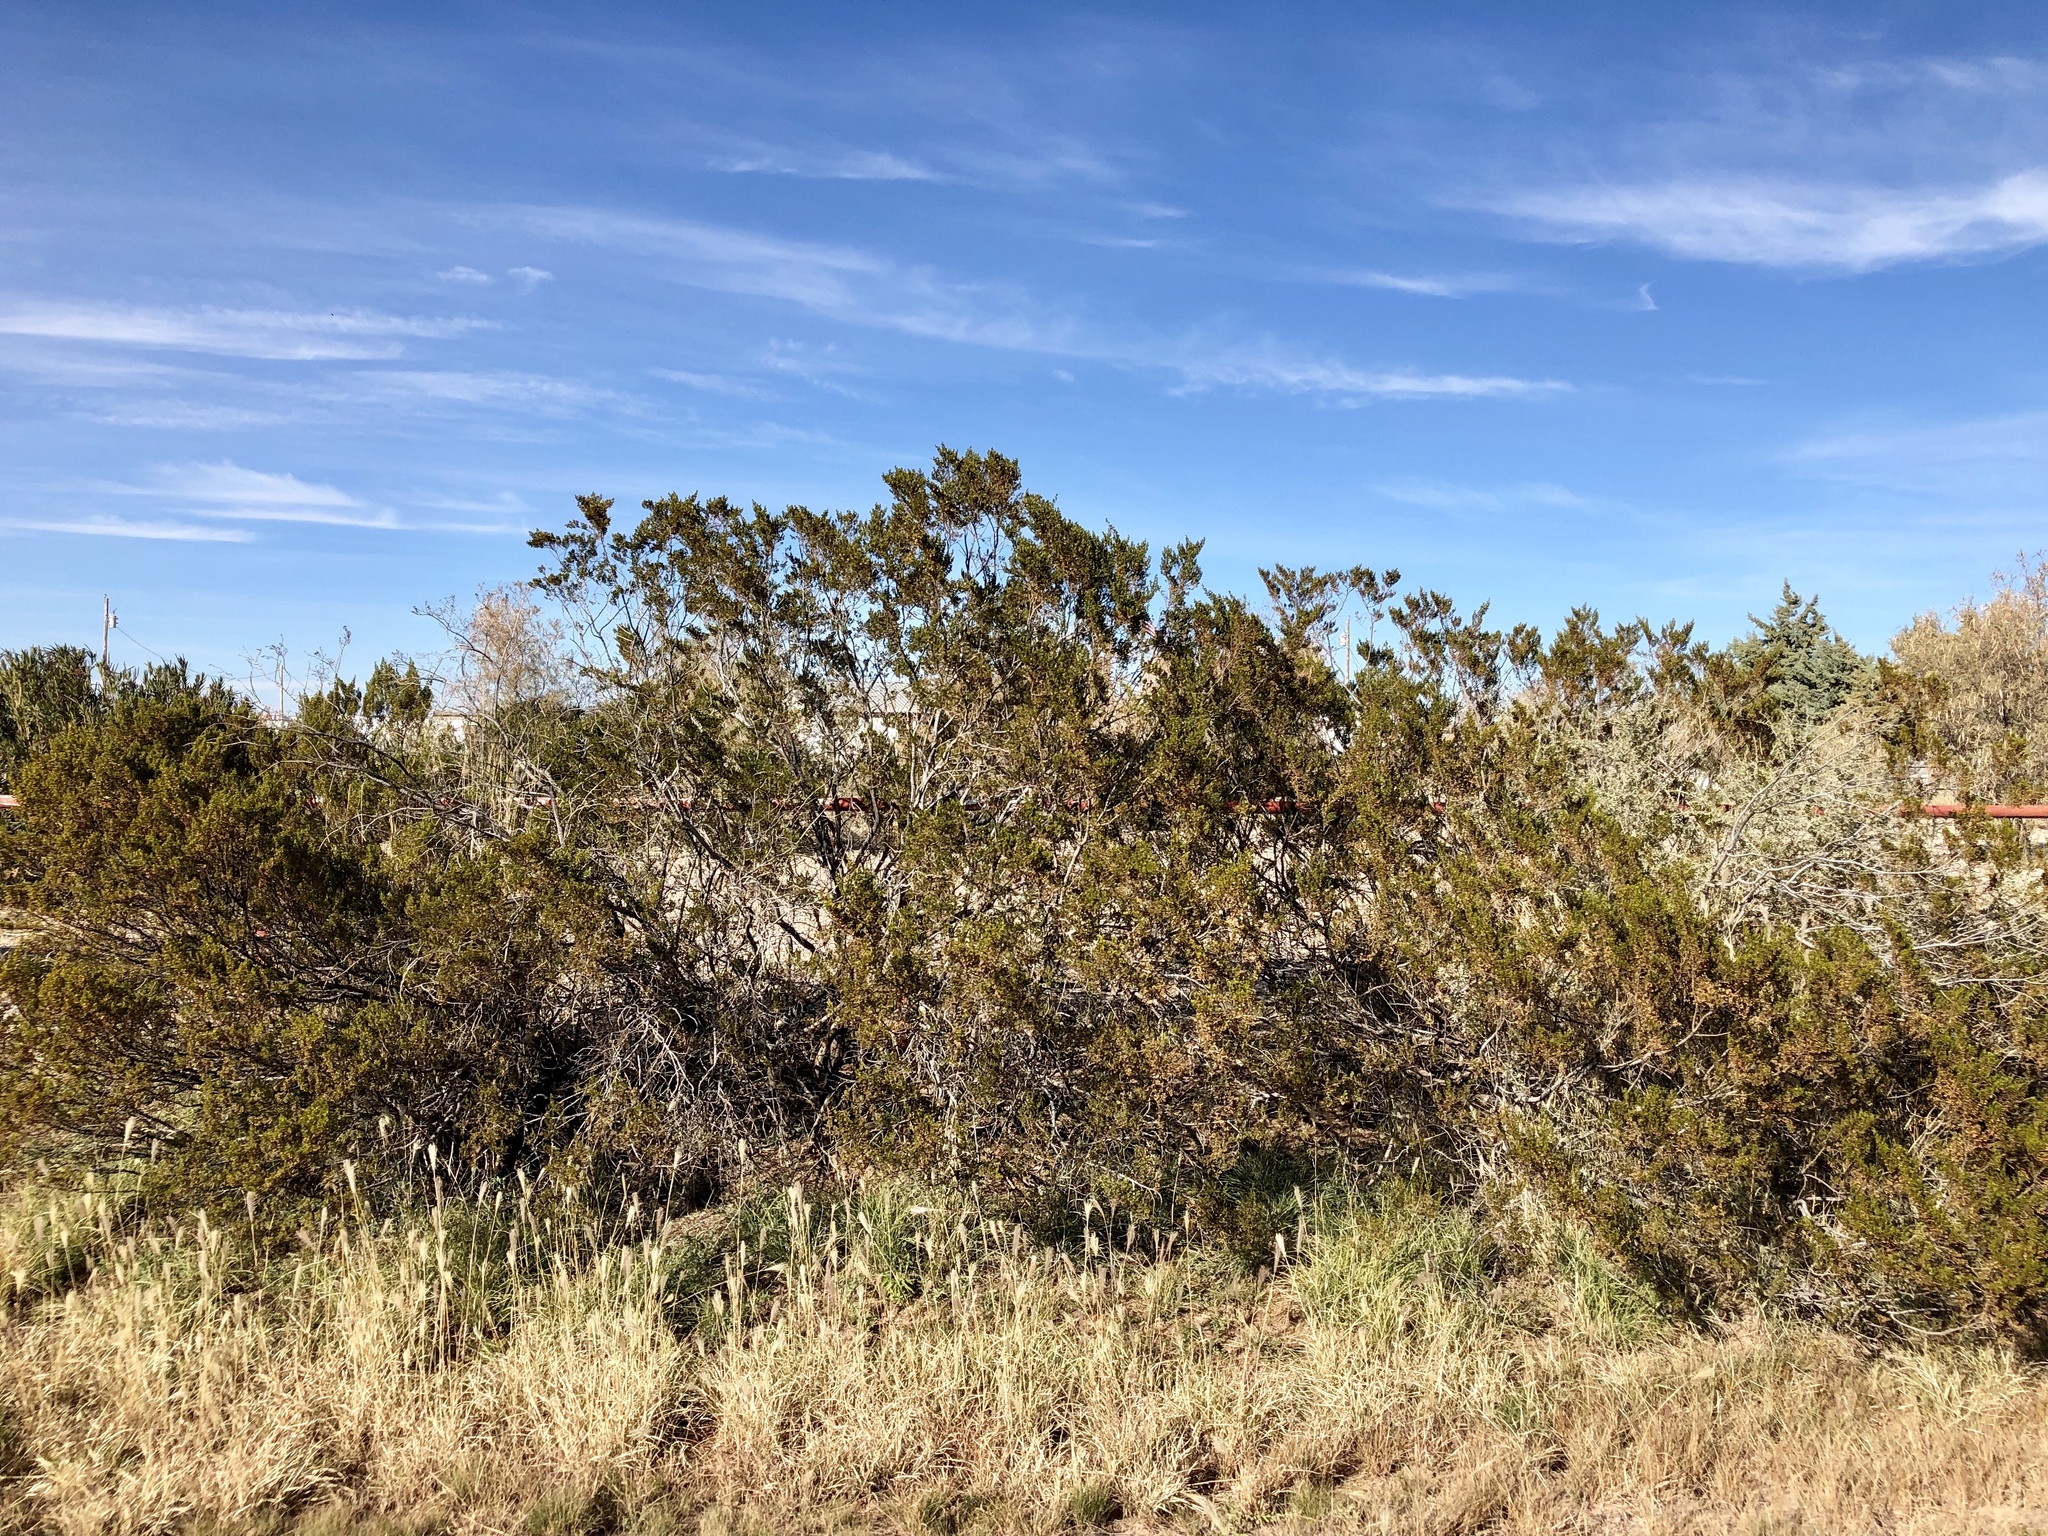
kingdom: Plantae
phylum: Tracheophyta
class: Magnoliopsida
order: Zygophyllales
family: Zygophyllaceae
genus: Larrea
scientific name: Larrea tridentata
